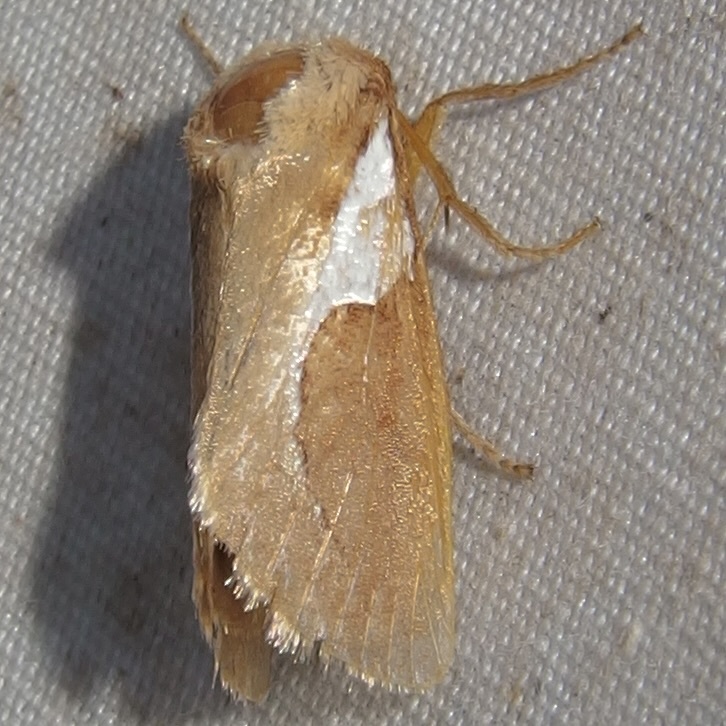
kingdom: Animalia
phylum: Arthropoda
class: Insecta
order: Lepidoptera
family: Limacodidae
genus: Prolimacodes
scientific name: Prolimacodes trigona
